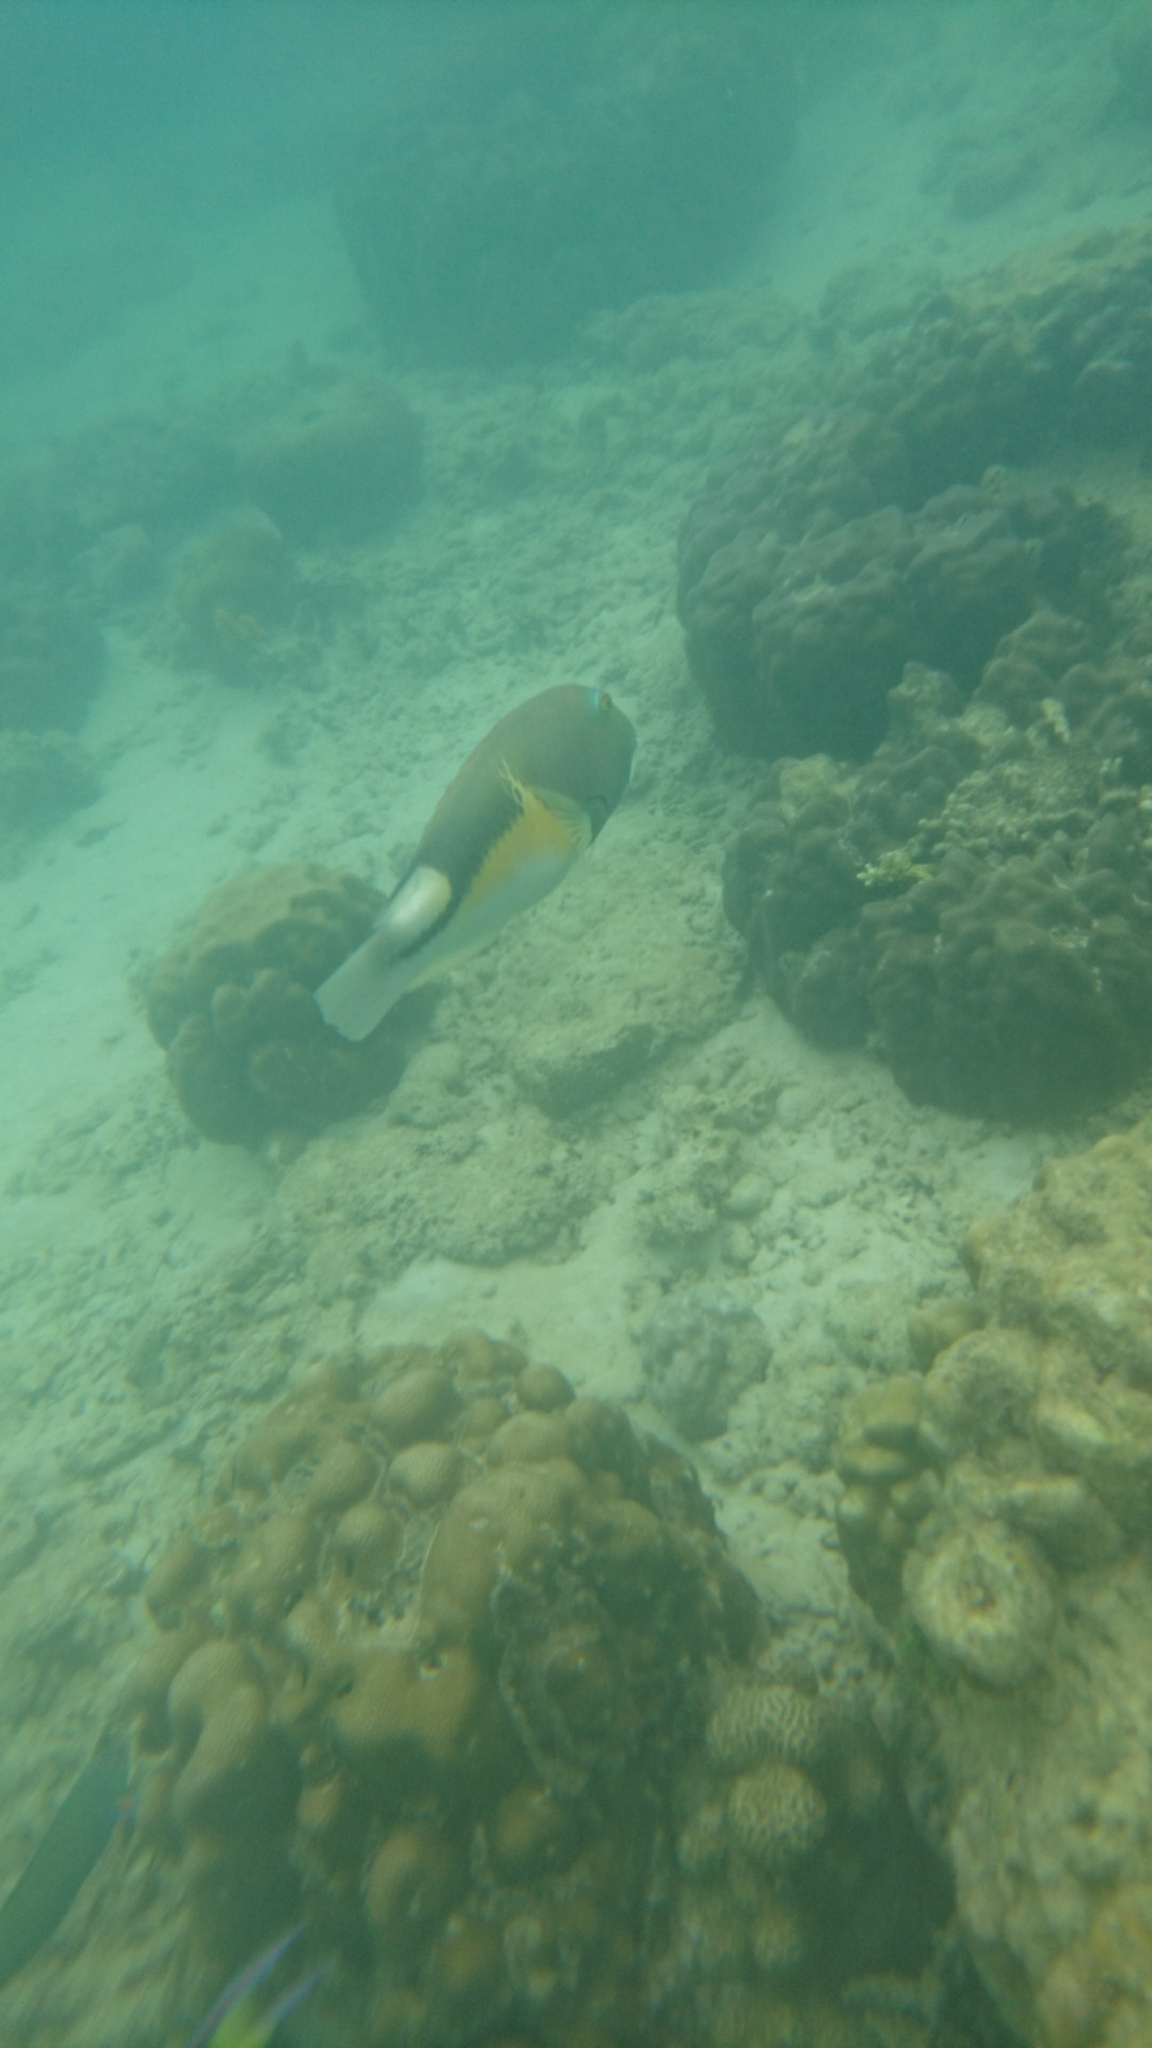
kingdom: Animalia
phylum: Chordata
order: Perciformes
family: Labridae
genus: Choerodon
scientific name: Choerodon anchorago
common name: Anchor tuskfish
